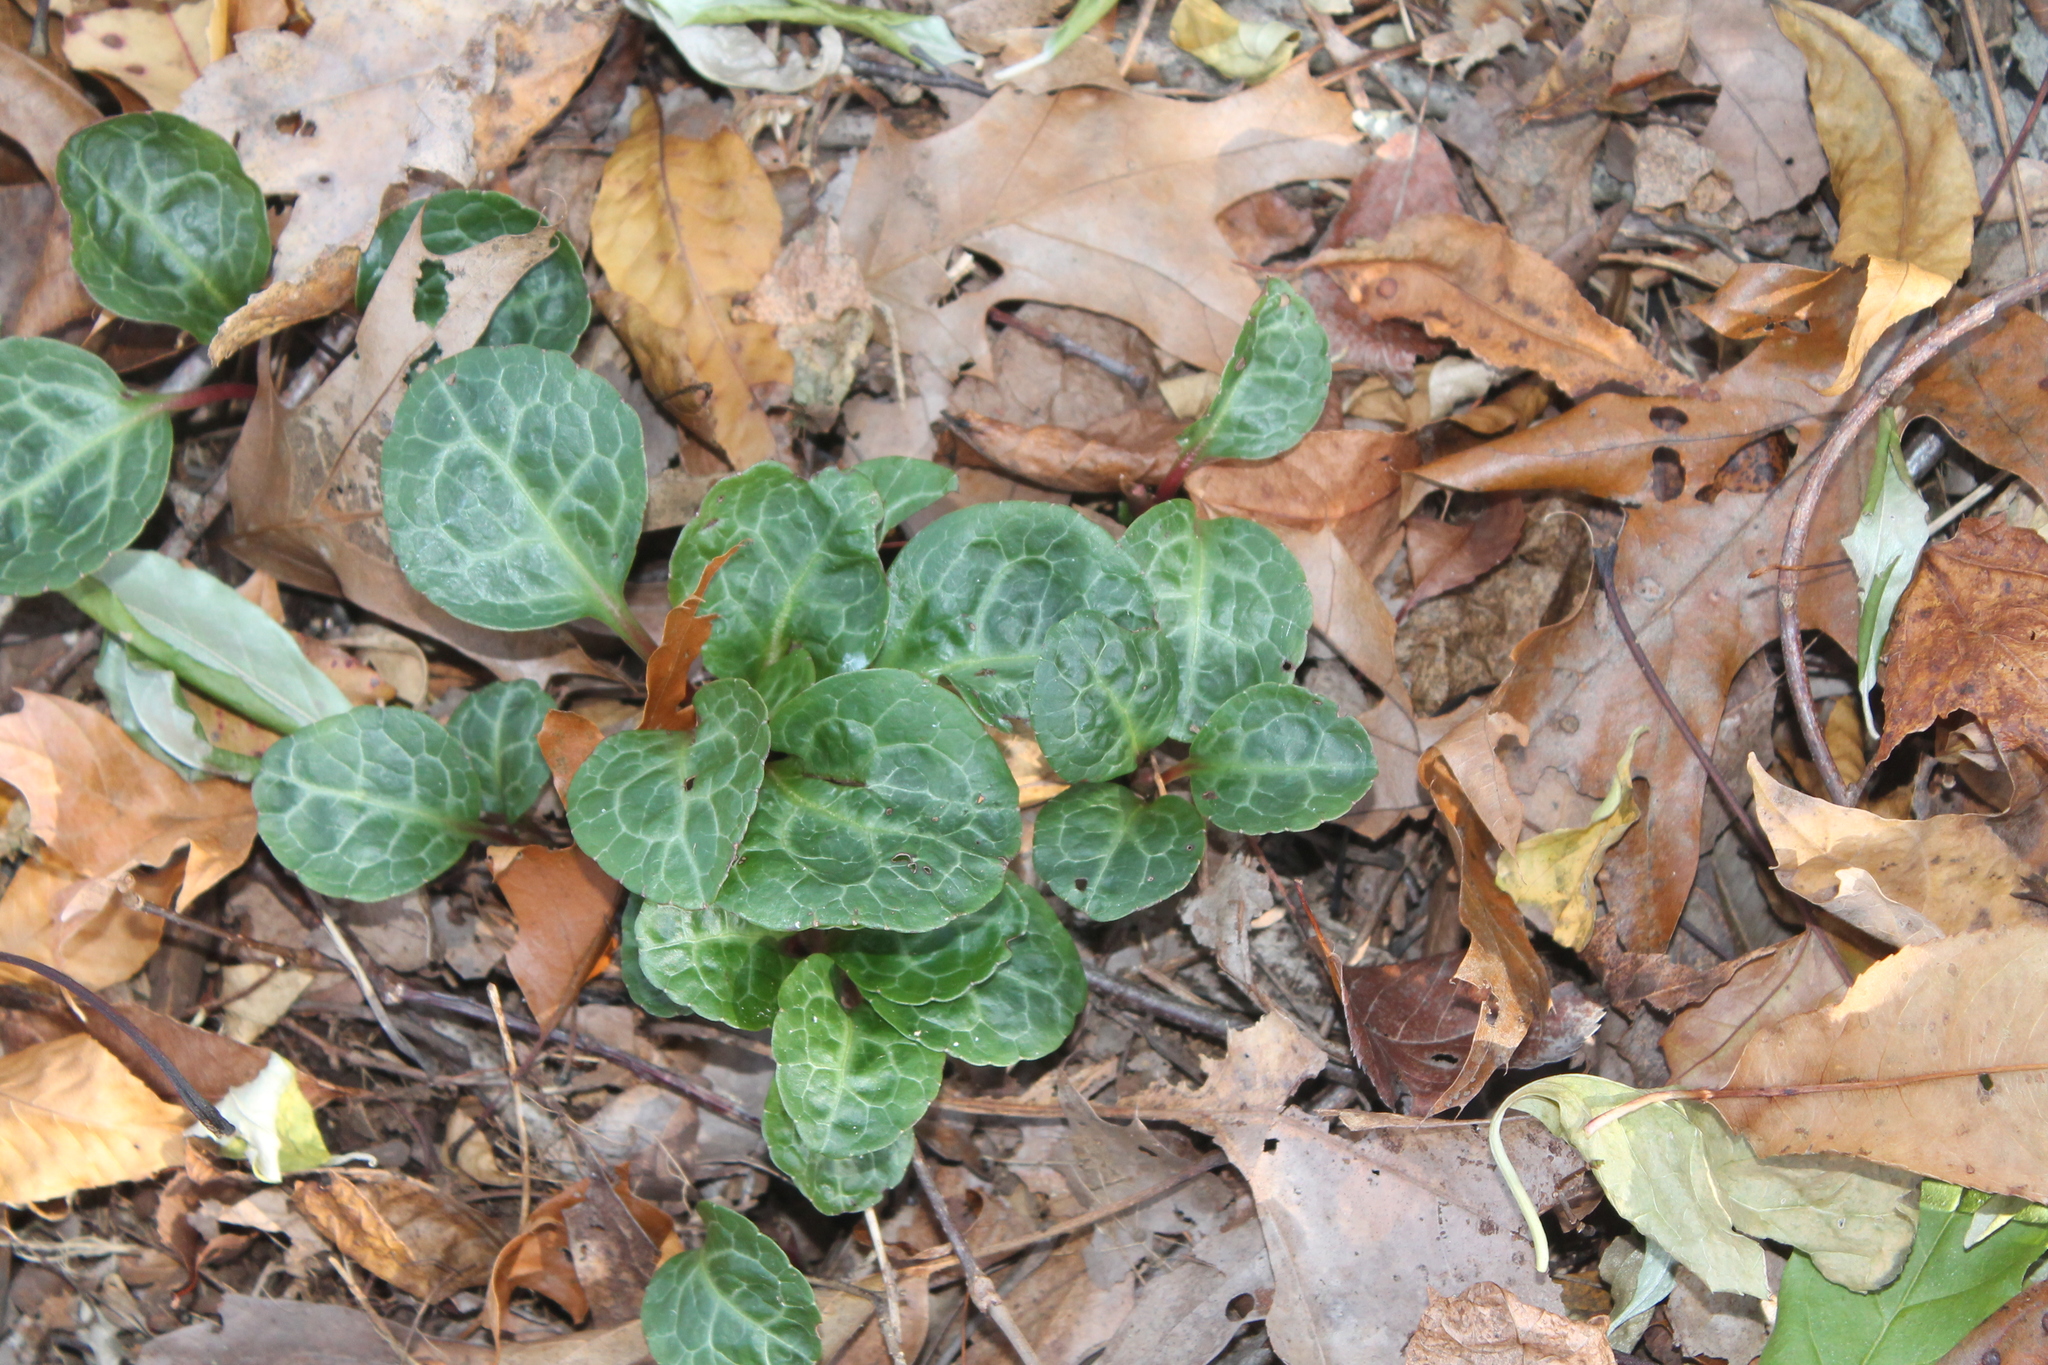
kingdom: Plantae
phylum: Tracheophyta
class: Magnoliopsida
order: Ericales
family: Ericaceae
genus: Pyrola
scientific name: Pyrola americana
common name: American wintergreen
